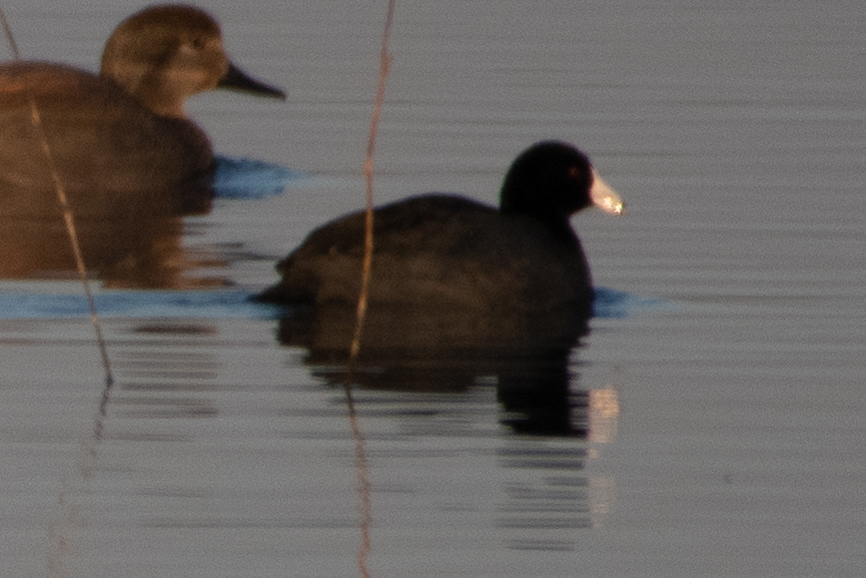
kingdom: Animalia
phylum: Chordata
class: Aves
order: Gruiformes
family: Rallidae
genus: Fulica
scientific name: Fulica americana
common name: American coot
